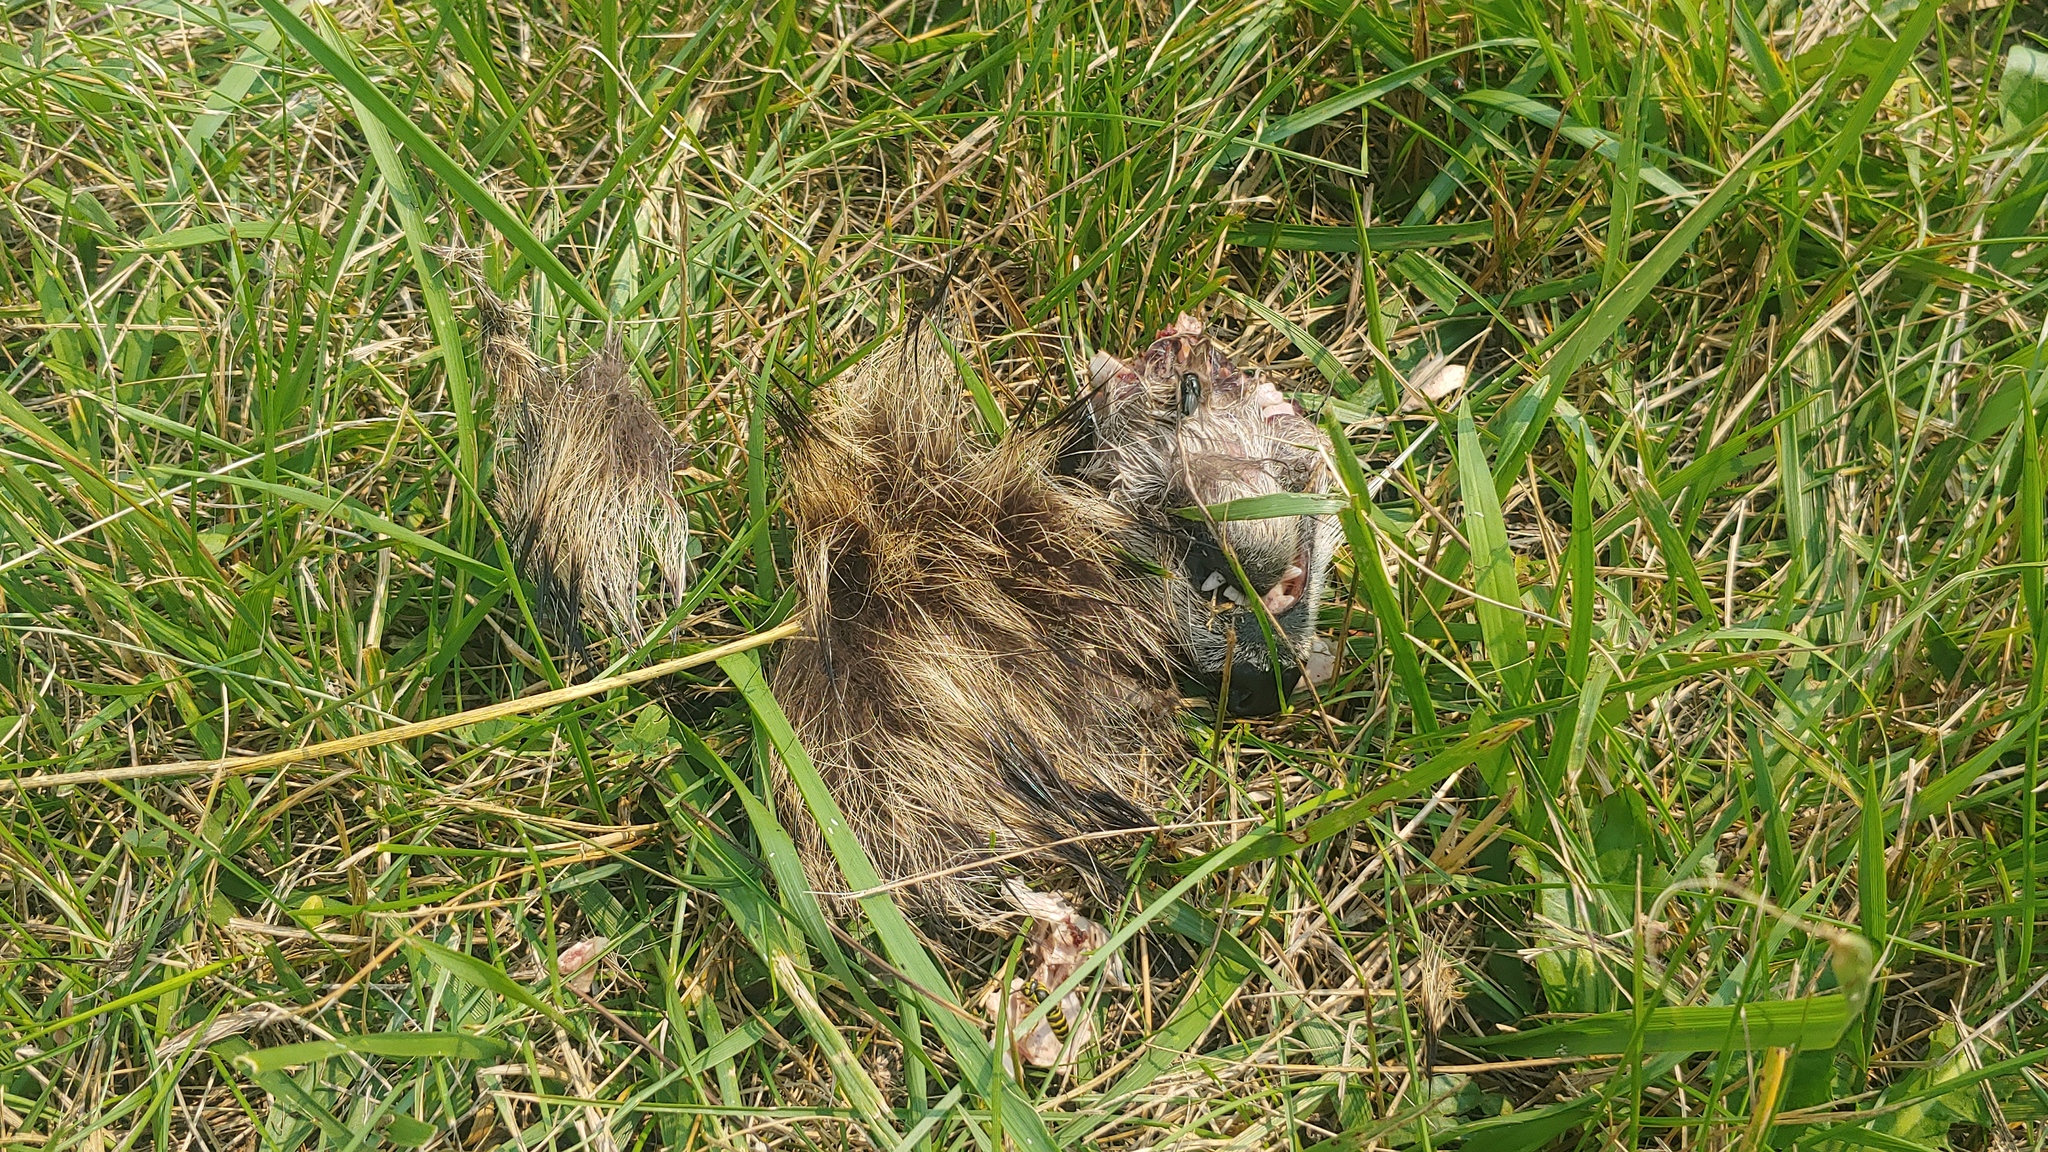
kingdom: Animalia
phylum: Chordata
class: Mammalia
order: Carnivora
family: Procyonidae
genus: Procyon
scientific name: Procyon lotor
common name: Raccoon
